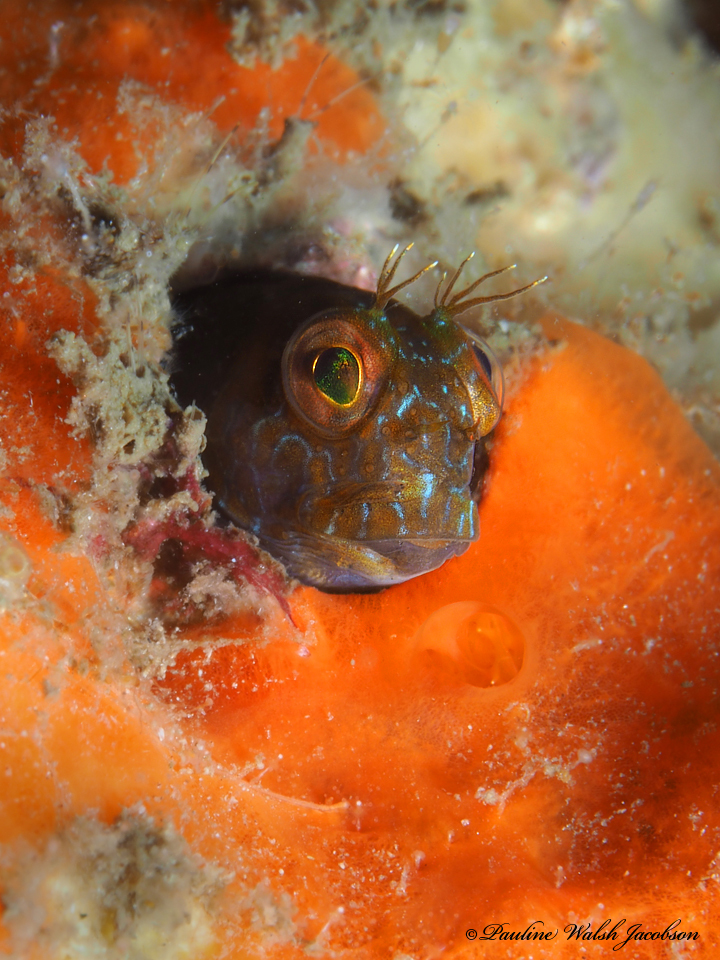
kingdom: Animalia
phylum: Chordata
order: Perciformes
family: Blenniidae
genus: Parablennius
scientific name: Parablennius marmoreus
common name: Seaweed blenny
